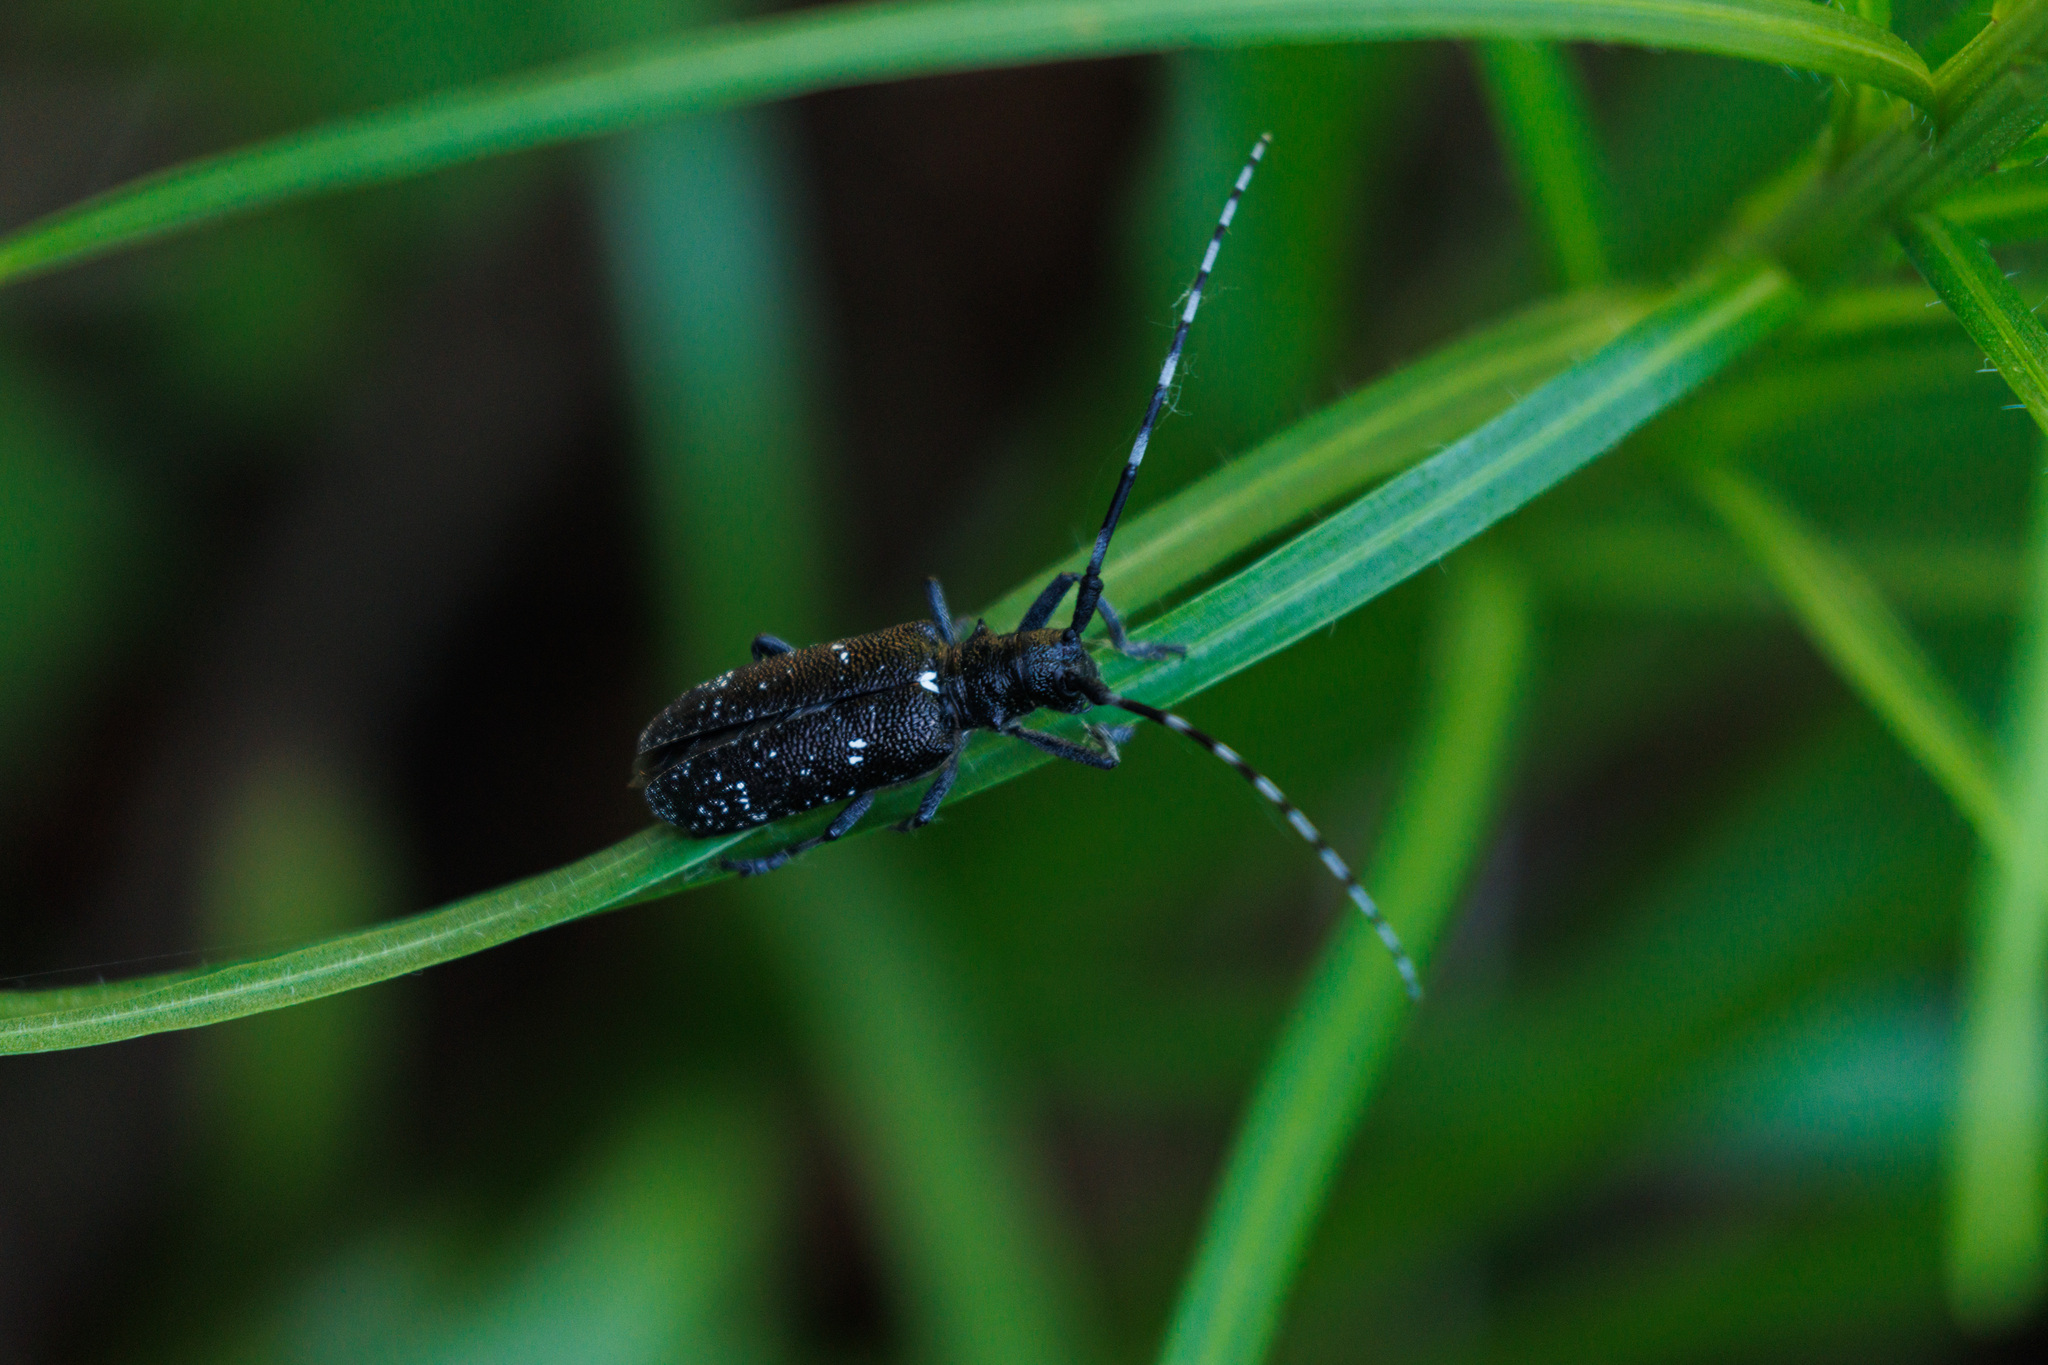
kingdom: Animalia
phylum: Arthropoda
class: Insecta
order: Coleoptera
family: Cerambycidae
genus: Monochamus
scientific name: Monochamus scutellatus
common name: White-spotted sawyer beetle
